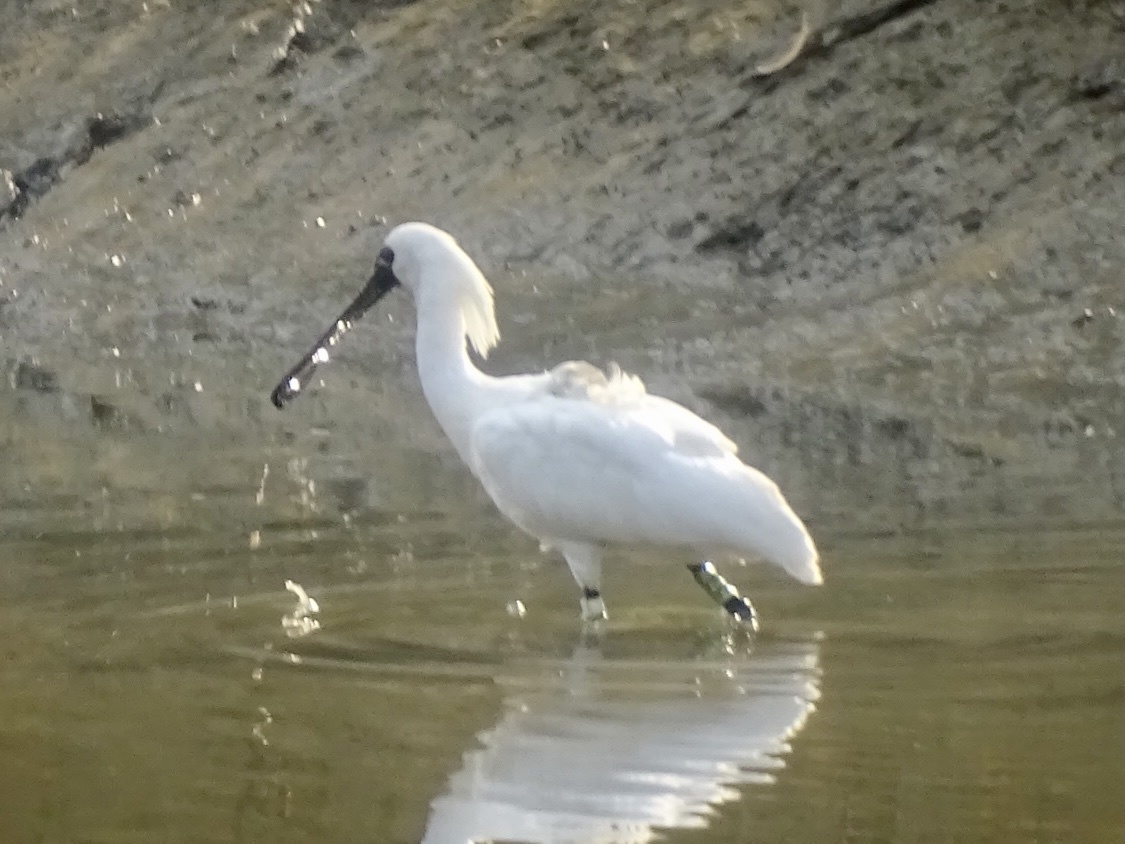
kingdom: Animalia
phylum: Chordata
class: Aves
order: Pelecaniformes
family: Threskiornithidae
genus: Platalea
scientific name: Platalea minor
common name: Black-faced spoonbill
